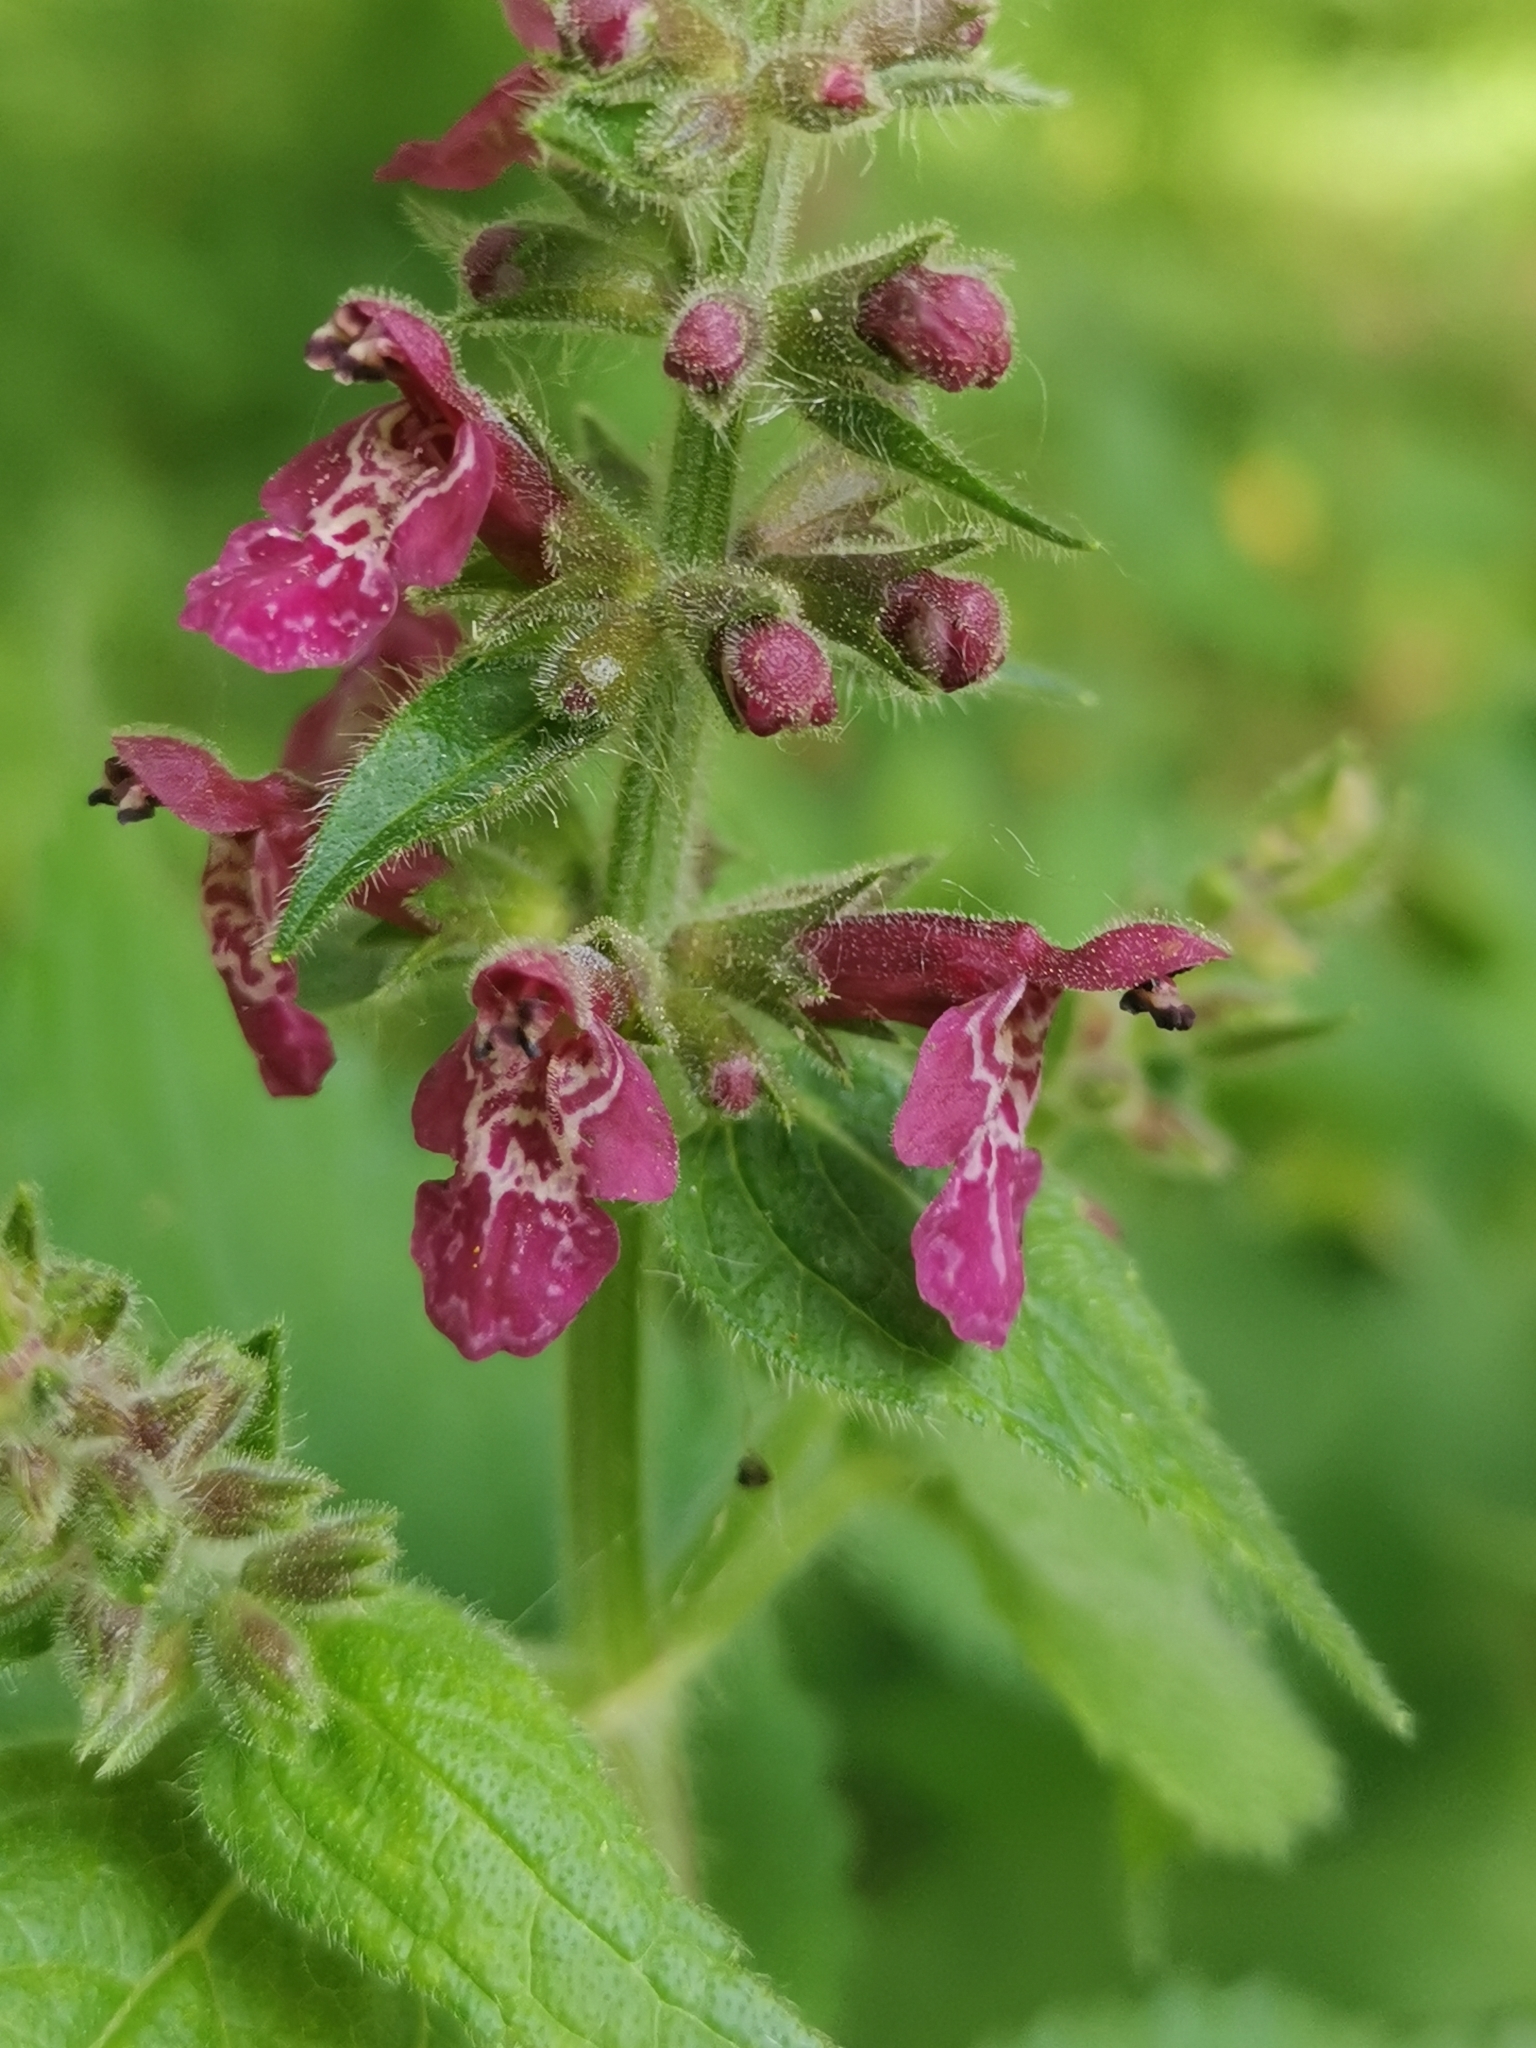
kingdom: Plantae
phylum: Tracheophyta
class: Magnoliopsida
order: Lamiales
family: Lamiaceae
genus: Stachys
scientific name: Stachys sylvatica
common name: Hedge woundwort
